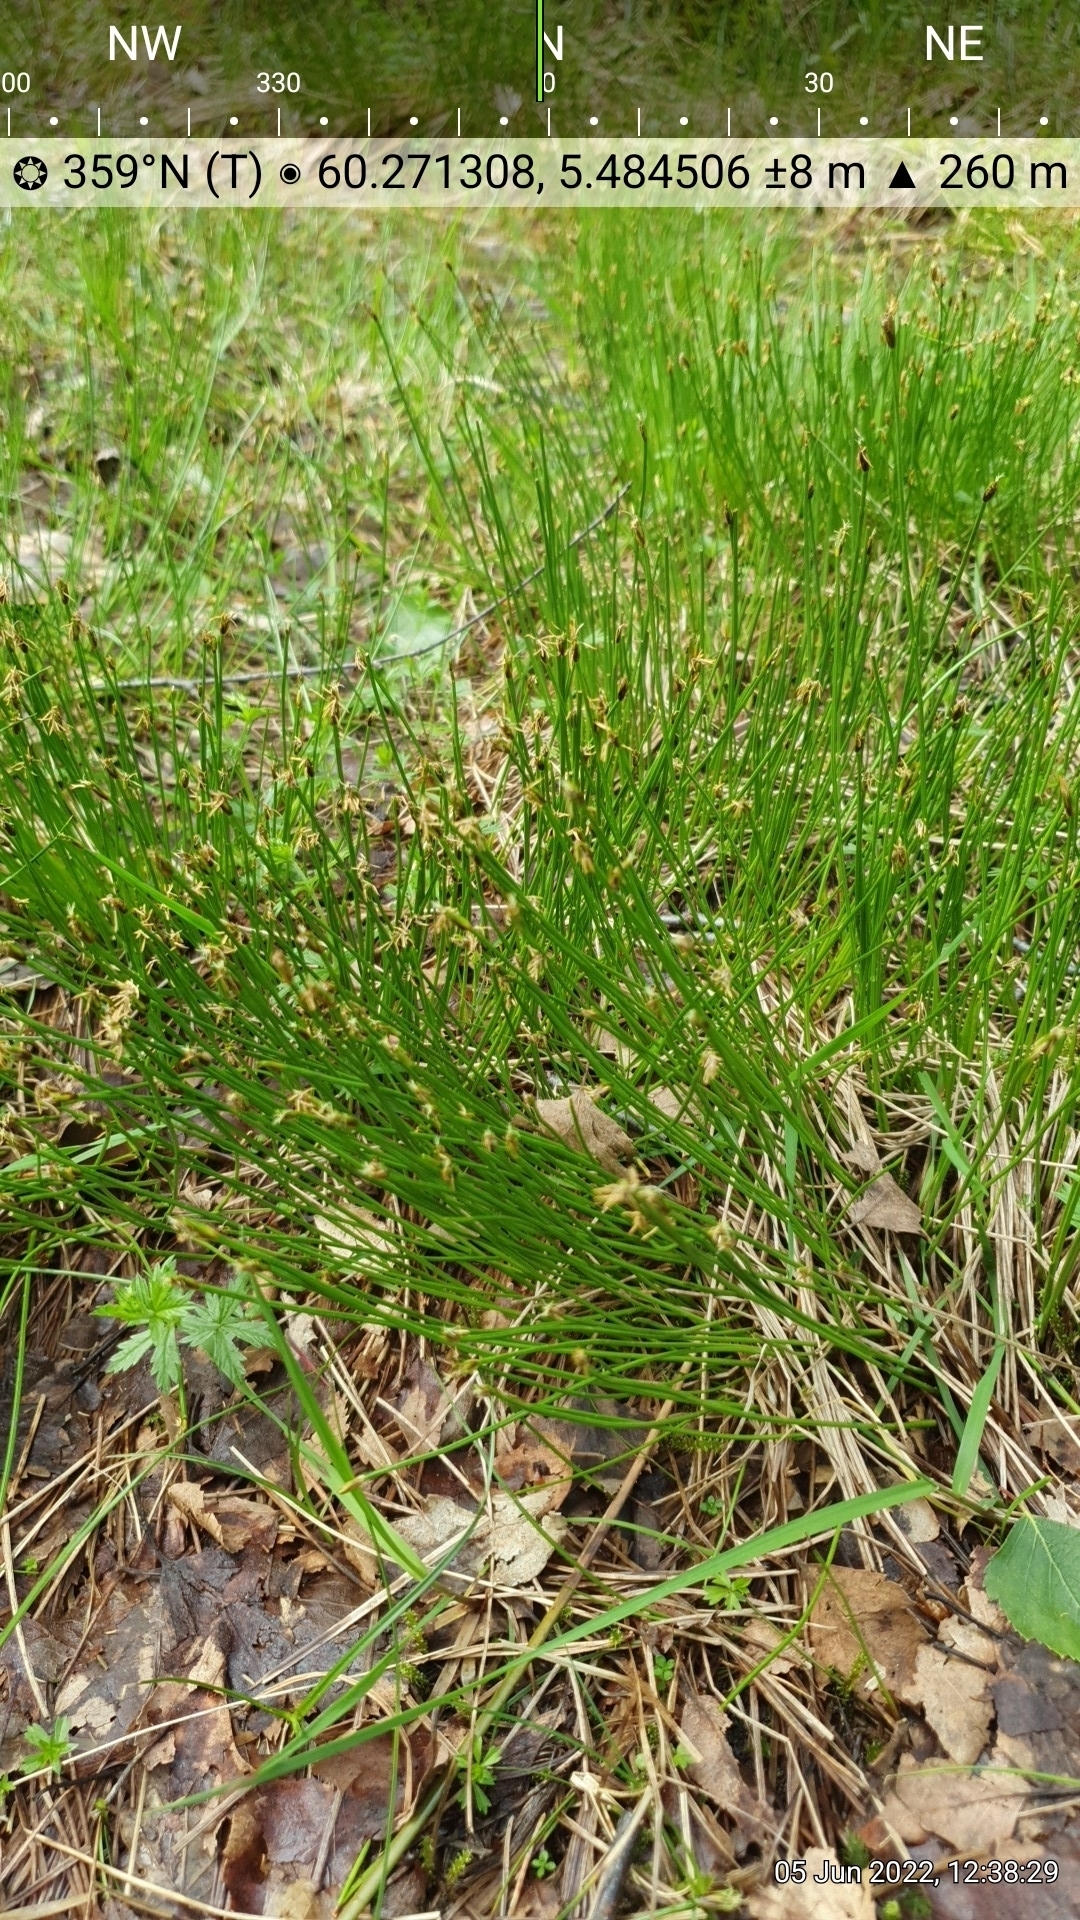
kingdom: Plantae
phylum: Tracheophyta
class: Liliopsida
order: Poales
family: Cyperaceae
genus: Trichophorum
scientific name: Trichophorum cespitosum
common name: Cespitose bulrush
